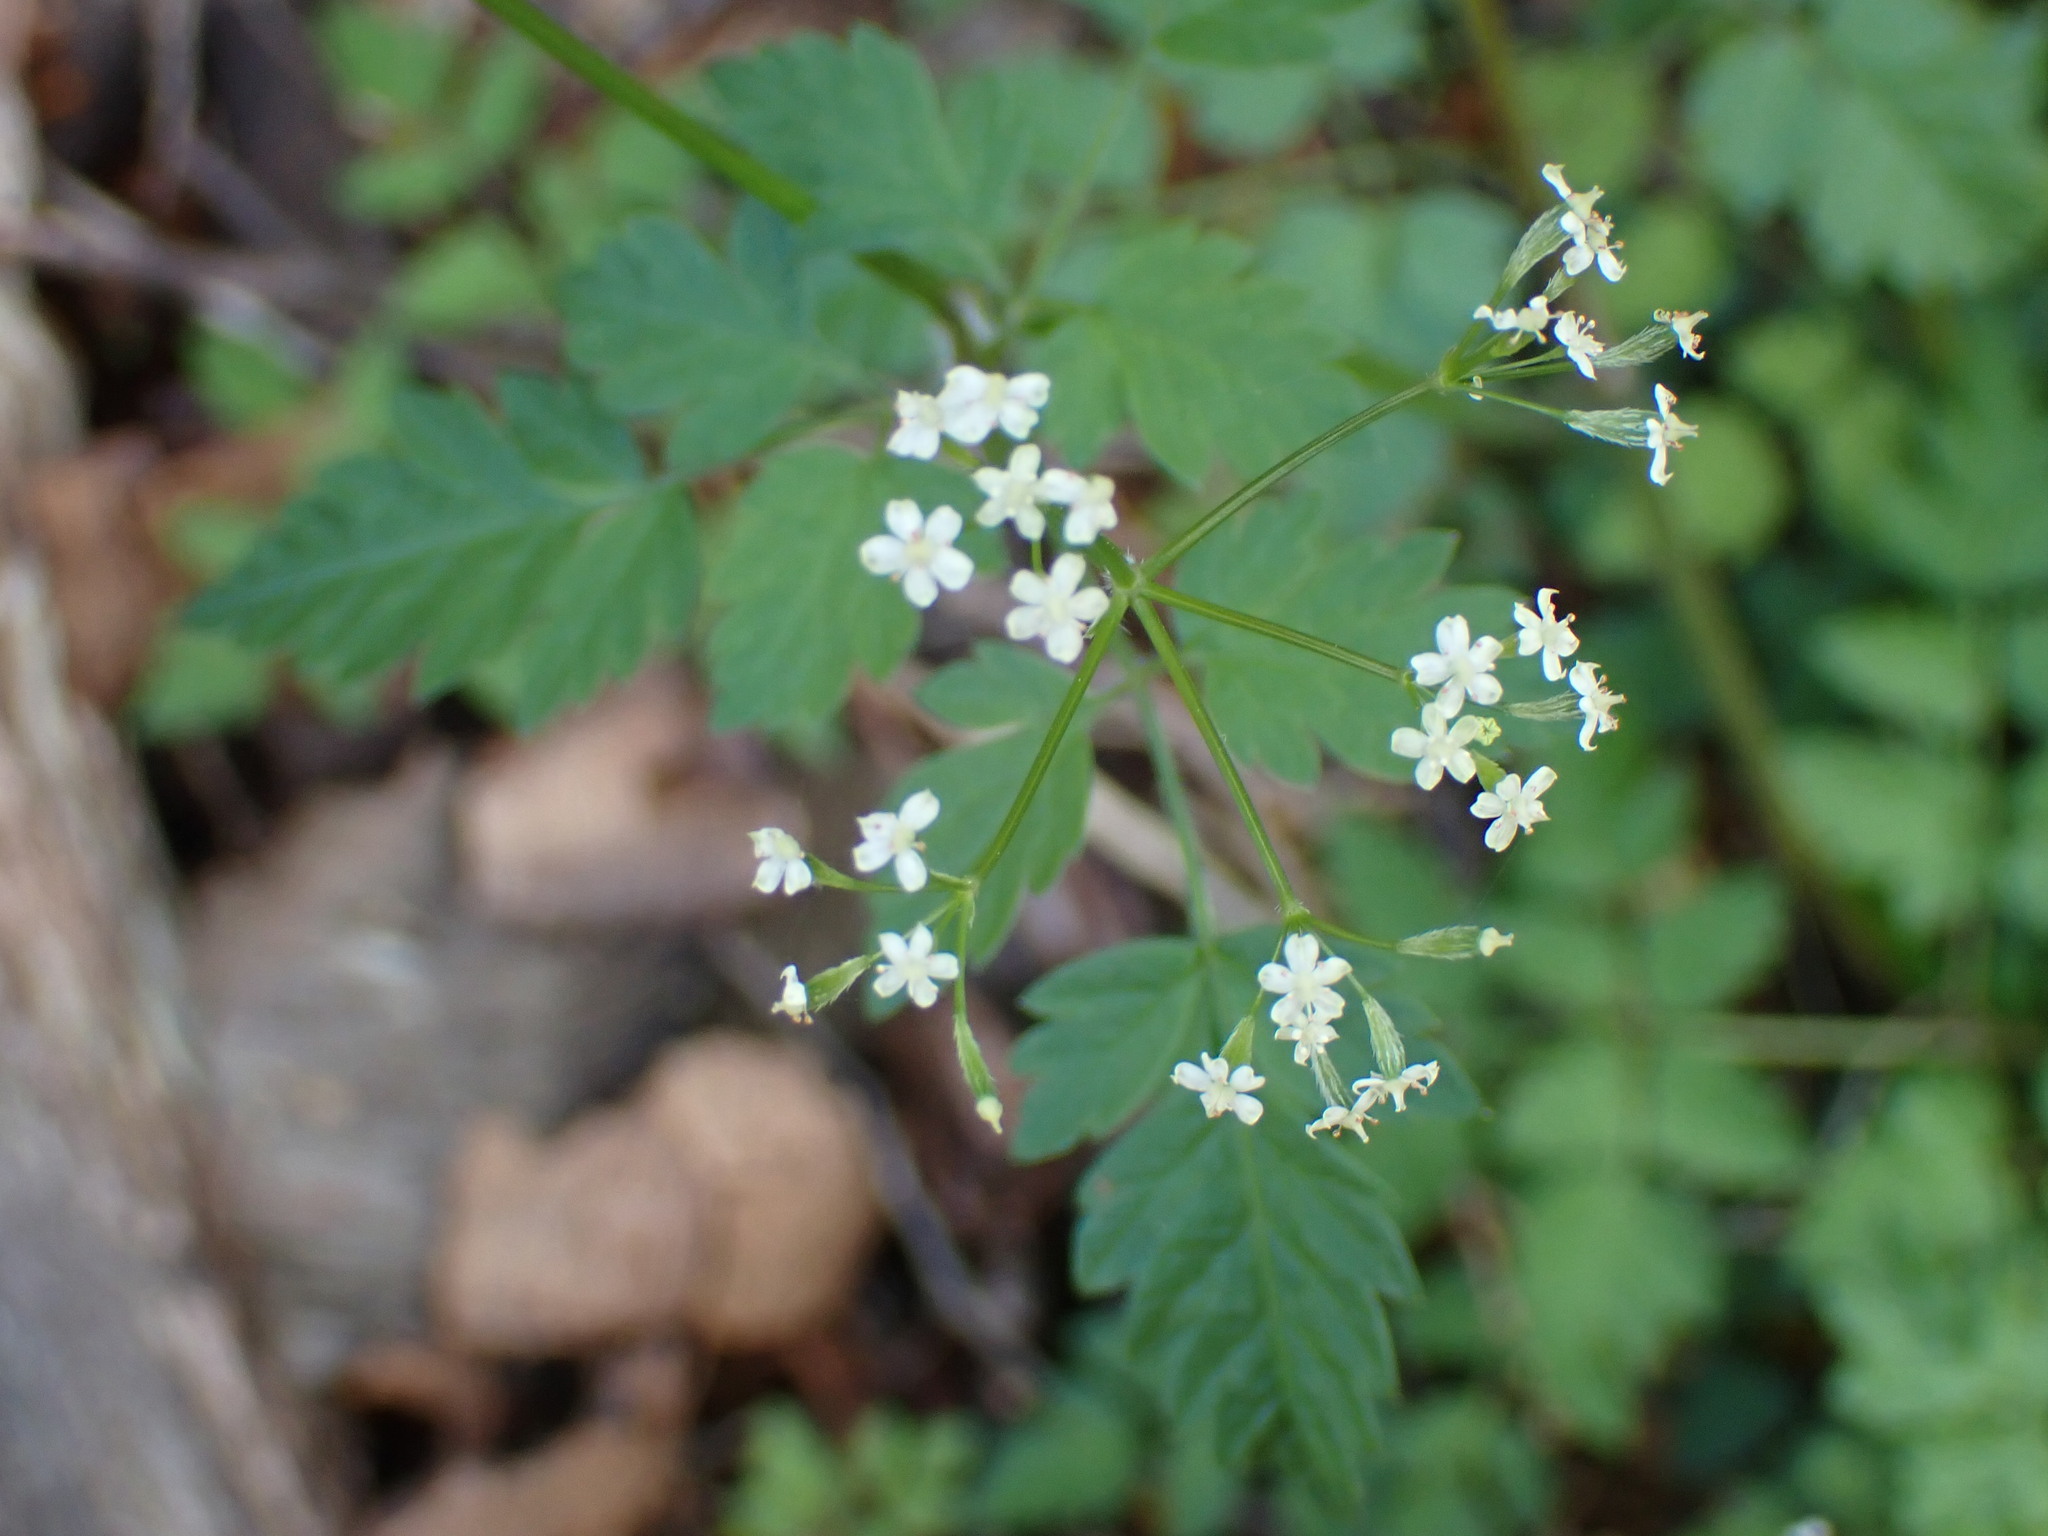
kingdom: Plantae
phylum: Tracheophyta
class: Magnoliopsida
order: Apiales
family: Apiaceae
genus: Osmorhiza
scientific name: Osmorhiza berteroi
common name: Mountain sweet cicely
